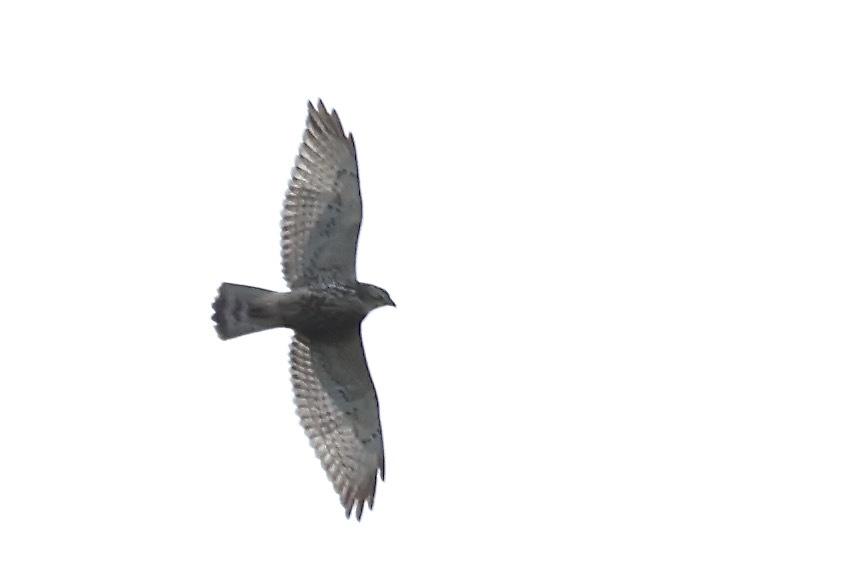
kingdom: Animalia
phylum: Chordata
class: Aves
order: Accipitriformes
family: Accipitridae
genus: Buteo
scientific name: Buteo platypterus
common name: Broad-winged hawk
